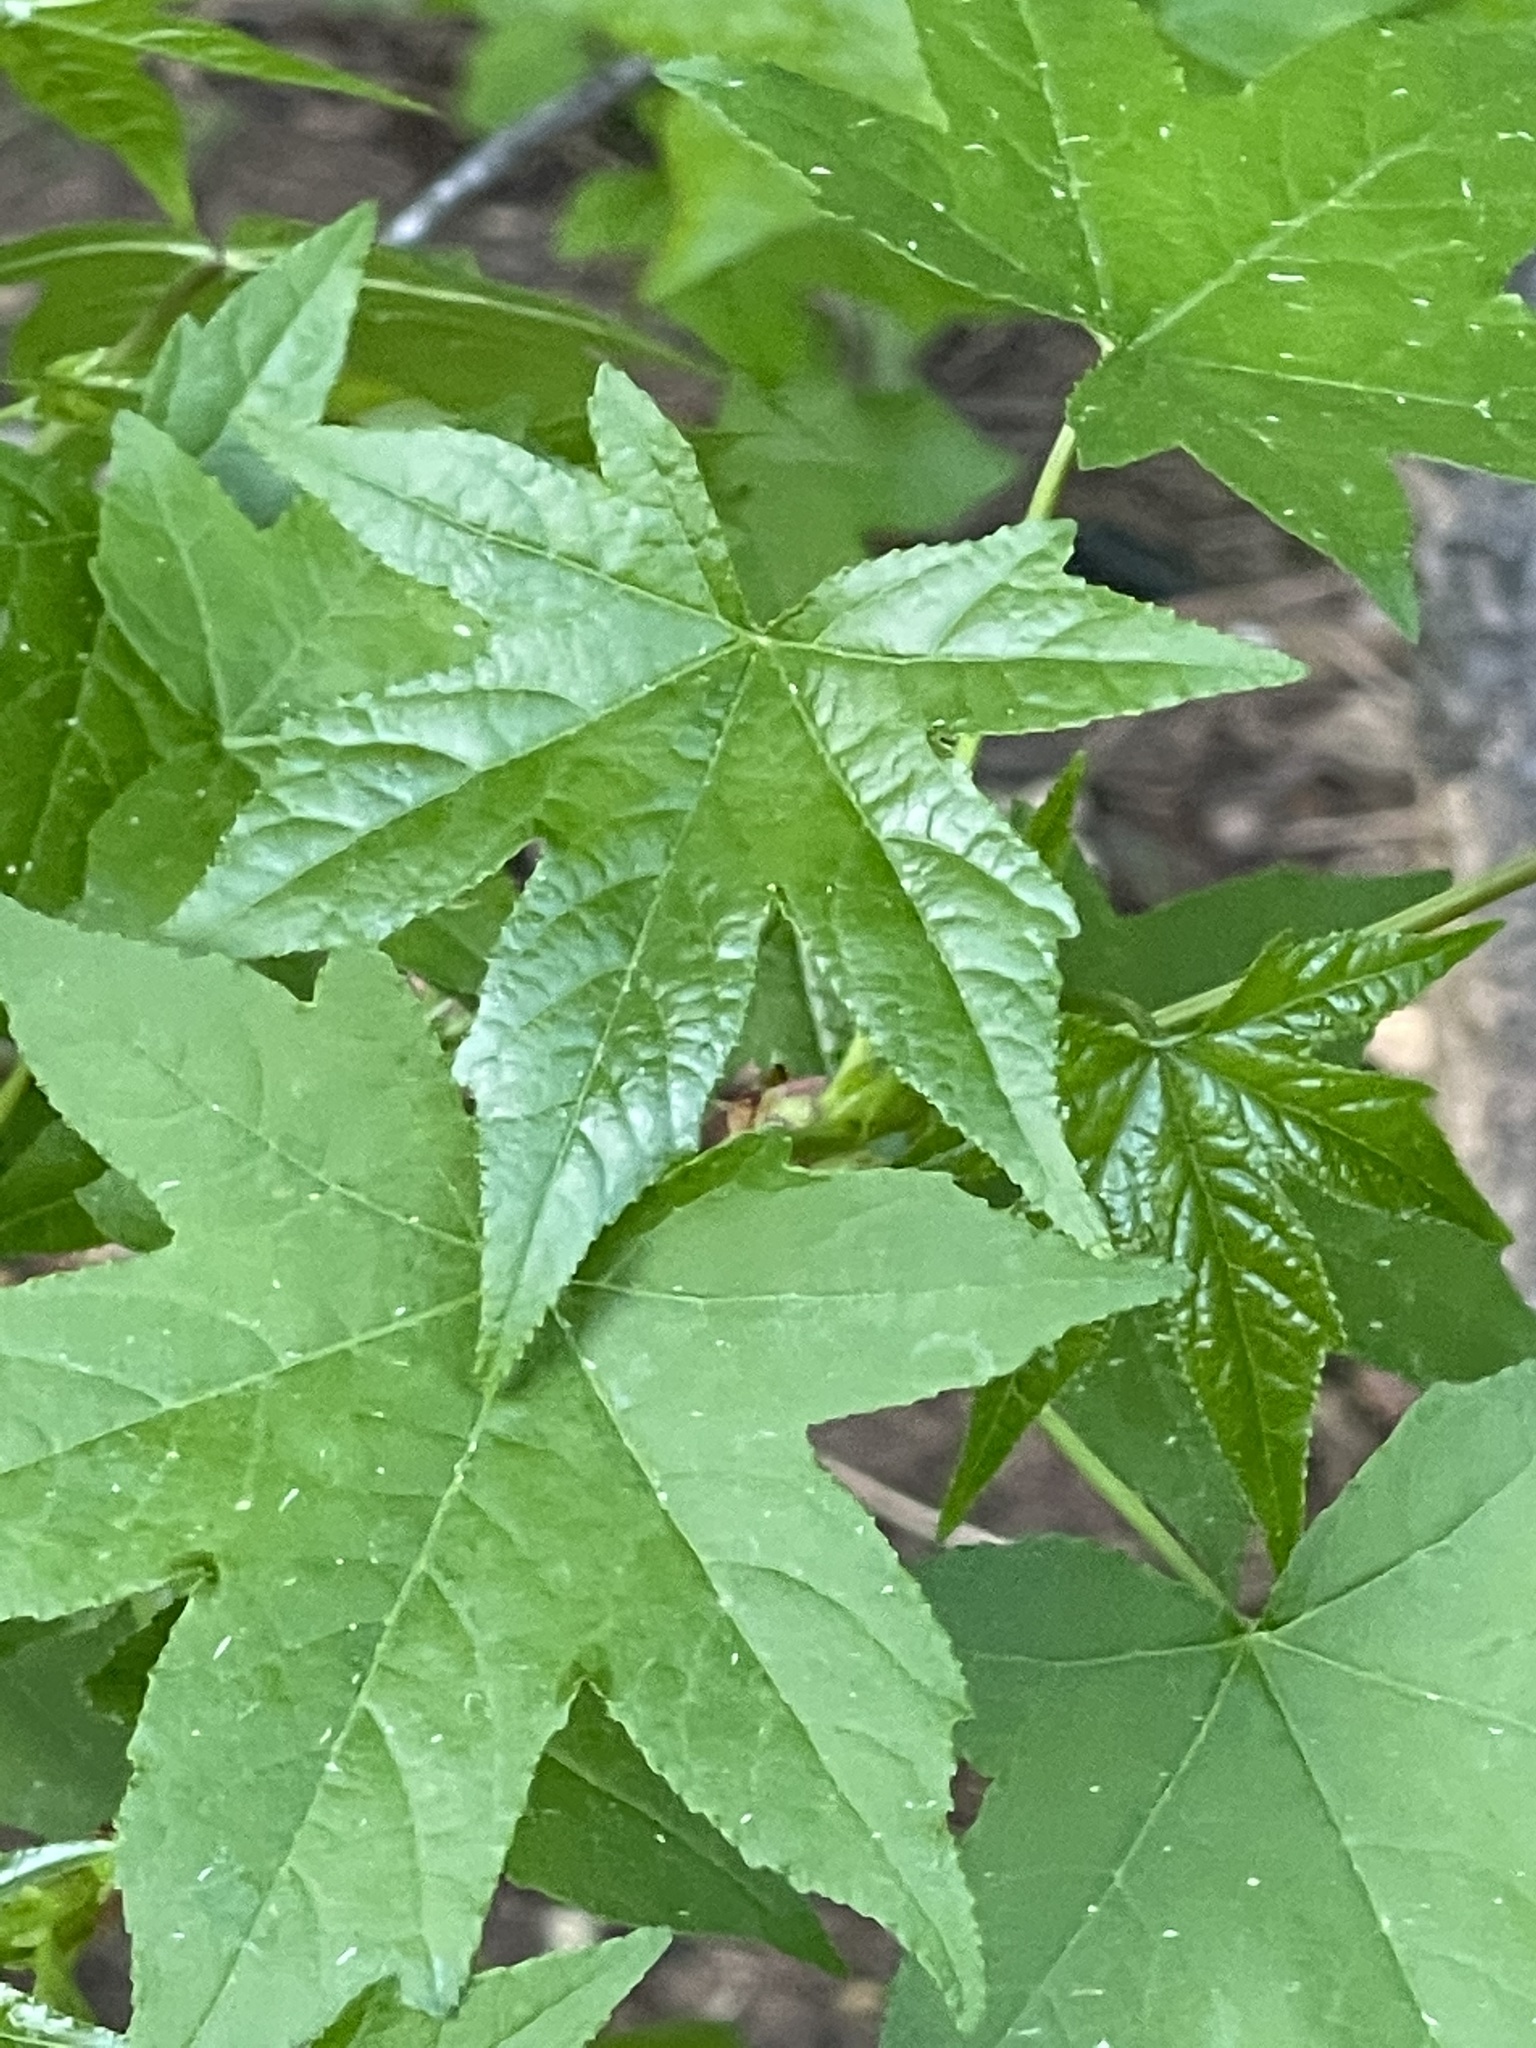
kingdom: Plantae
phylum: Tracheophyta
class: Magnoliopsida
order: Saxifragales
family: Altingiaceae
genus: Liquidambar
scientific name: Liquidambar styraciflua
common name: Sweet gum
